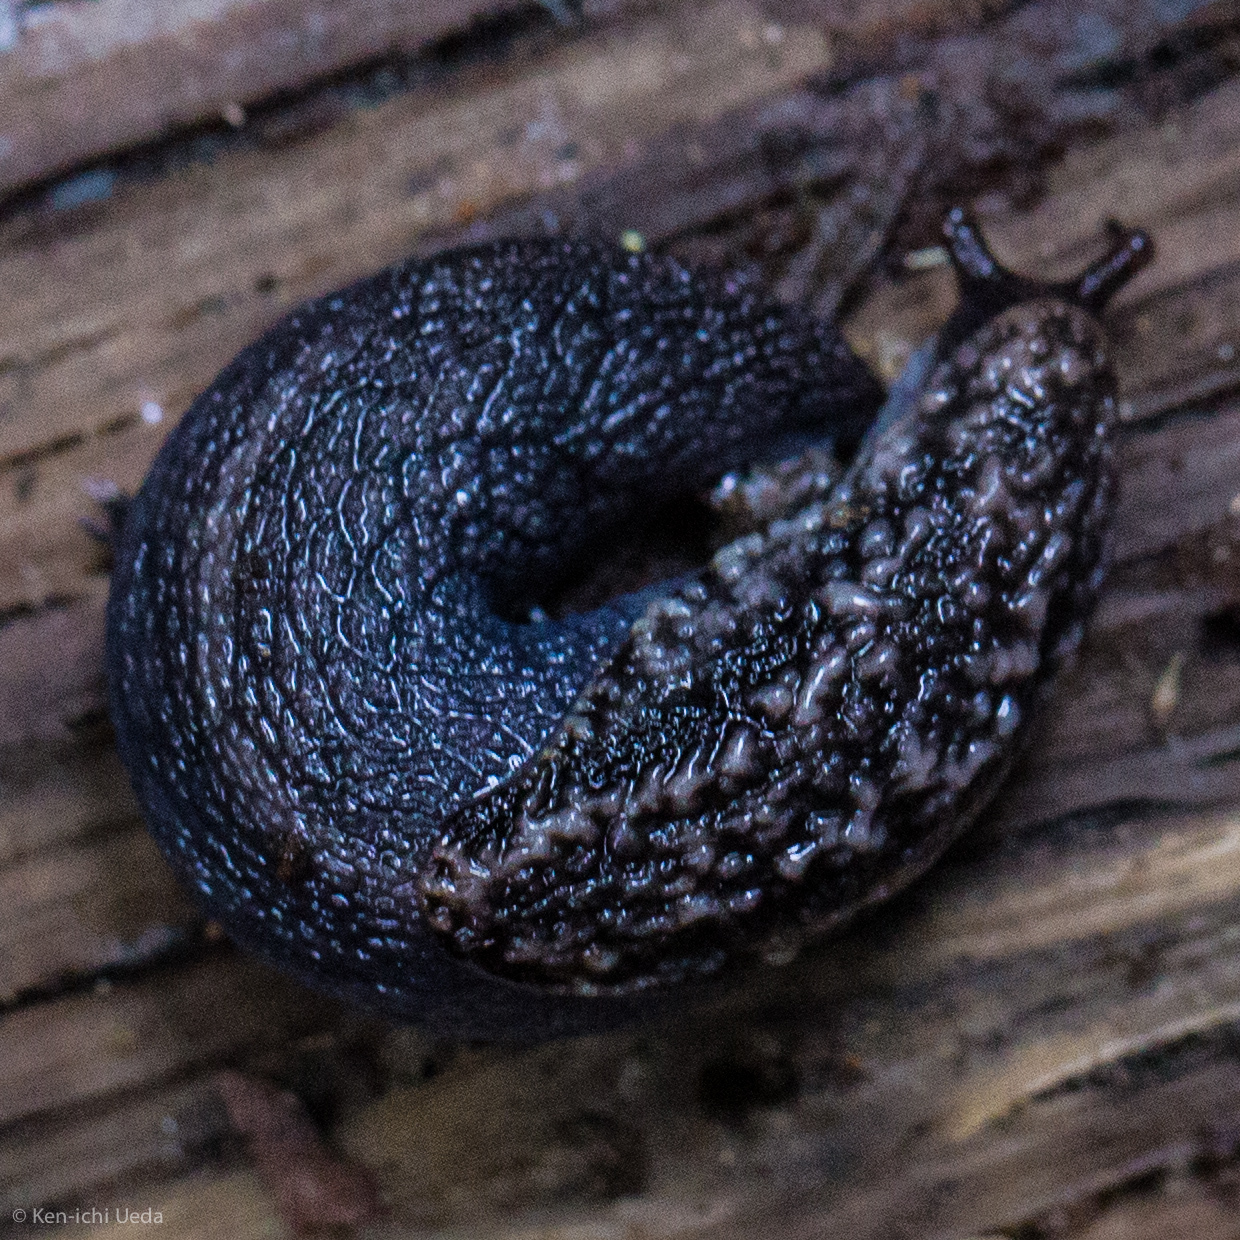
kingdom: Animalia
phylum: Mollusca
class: Gastropoda
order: Stylommatophora
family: Ariolimacidae
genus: Prophysaon
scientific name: Prophysaon andersonii
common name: Reticulate taildropper
